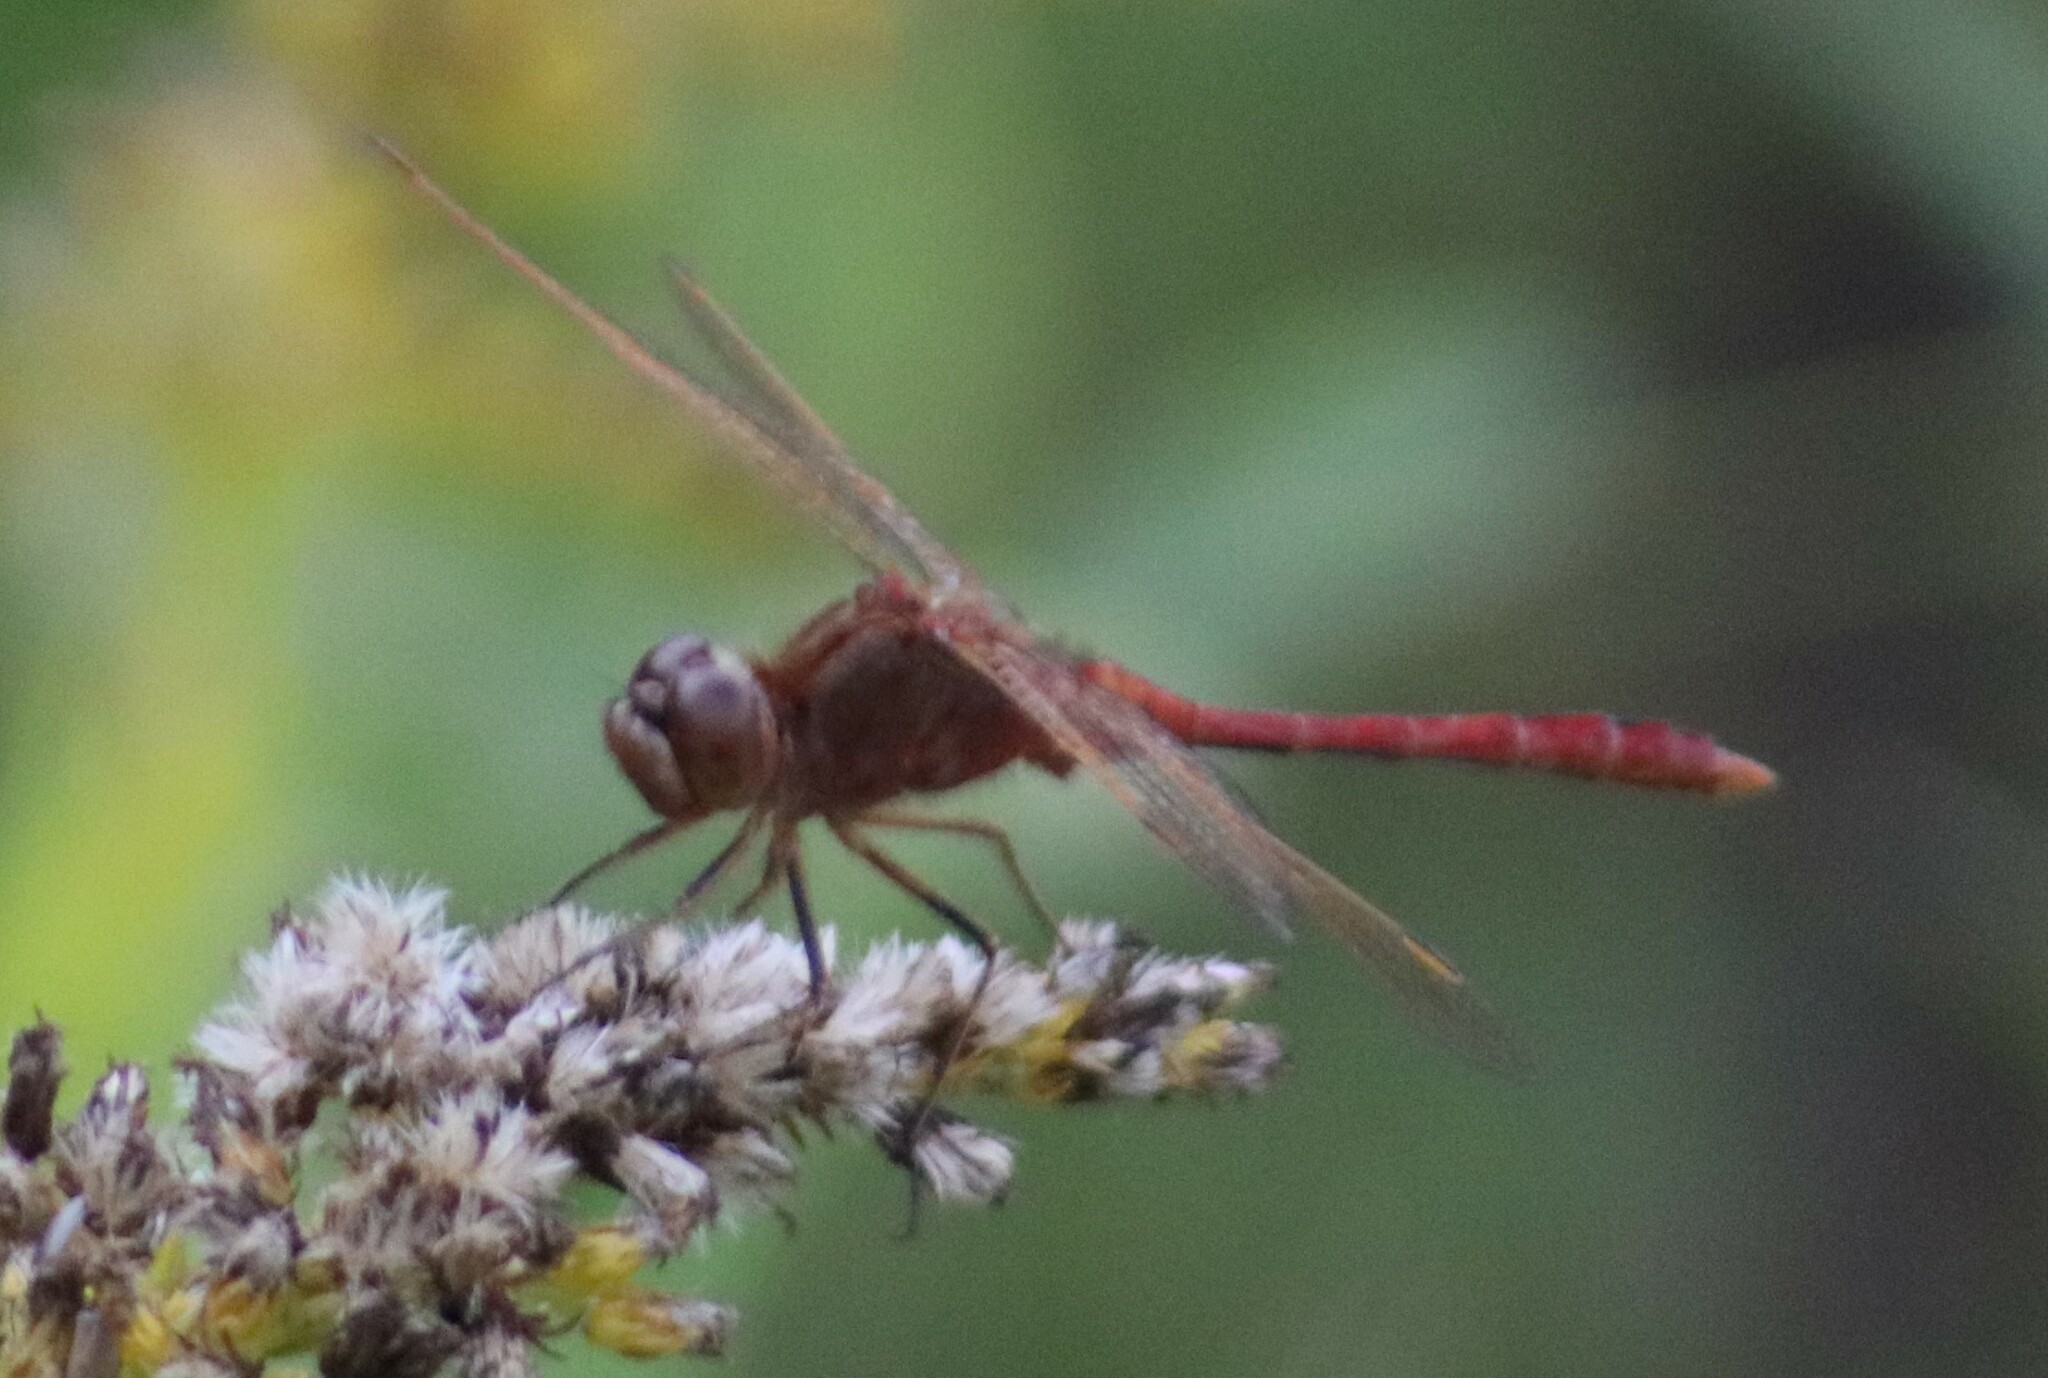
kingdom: Animalia
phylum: Arthropoda
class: Insecta
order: Odonata
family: Libellulidae
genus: Sympetrum
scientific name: Sympetrum costiferum
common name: Saffron-winged meadowhawk
